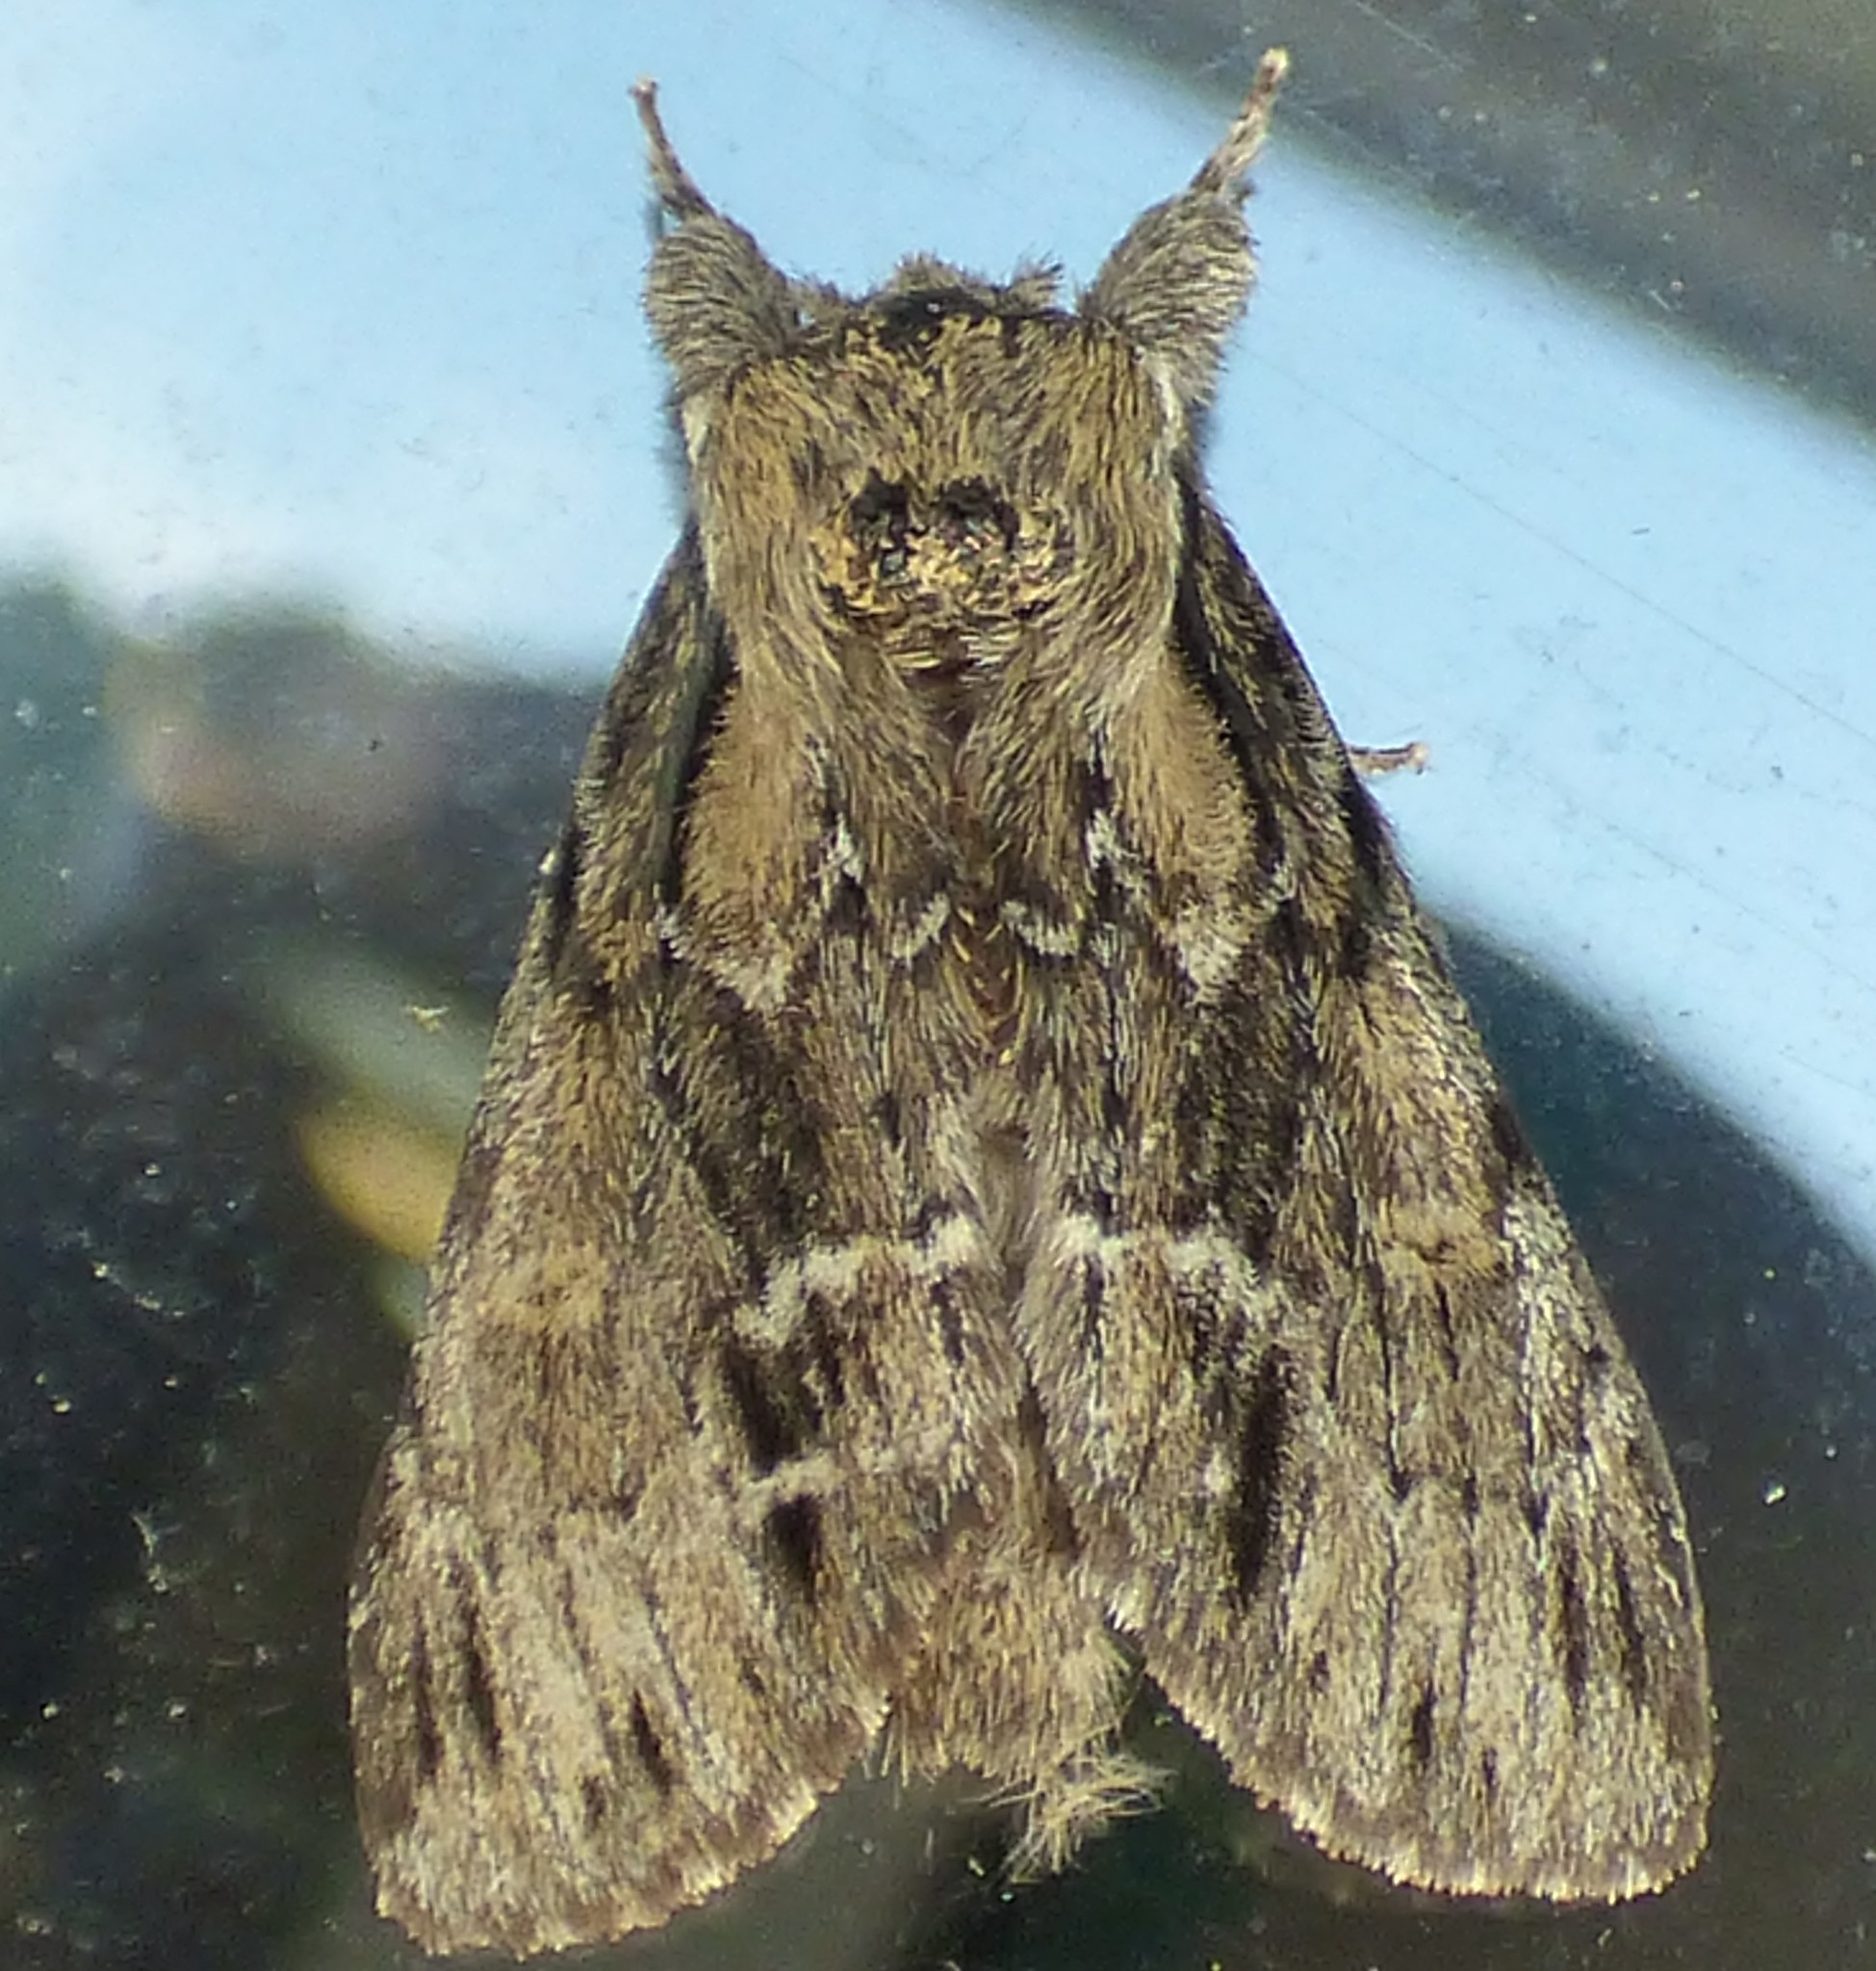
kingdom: Animalia
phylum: Arthropoda
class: Insecta
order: Lepidoptera
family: Notodontidae
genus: Paraeschra
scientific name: Paraeschra georgica
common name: Georgian prominent
